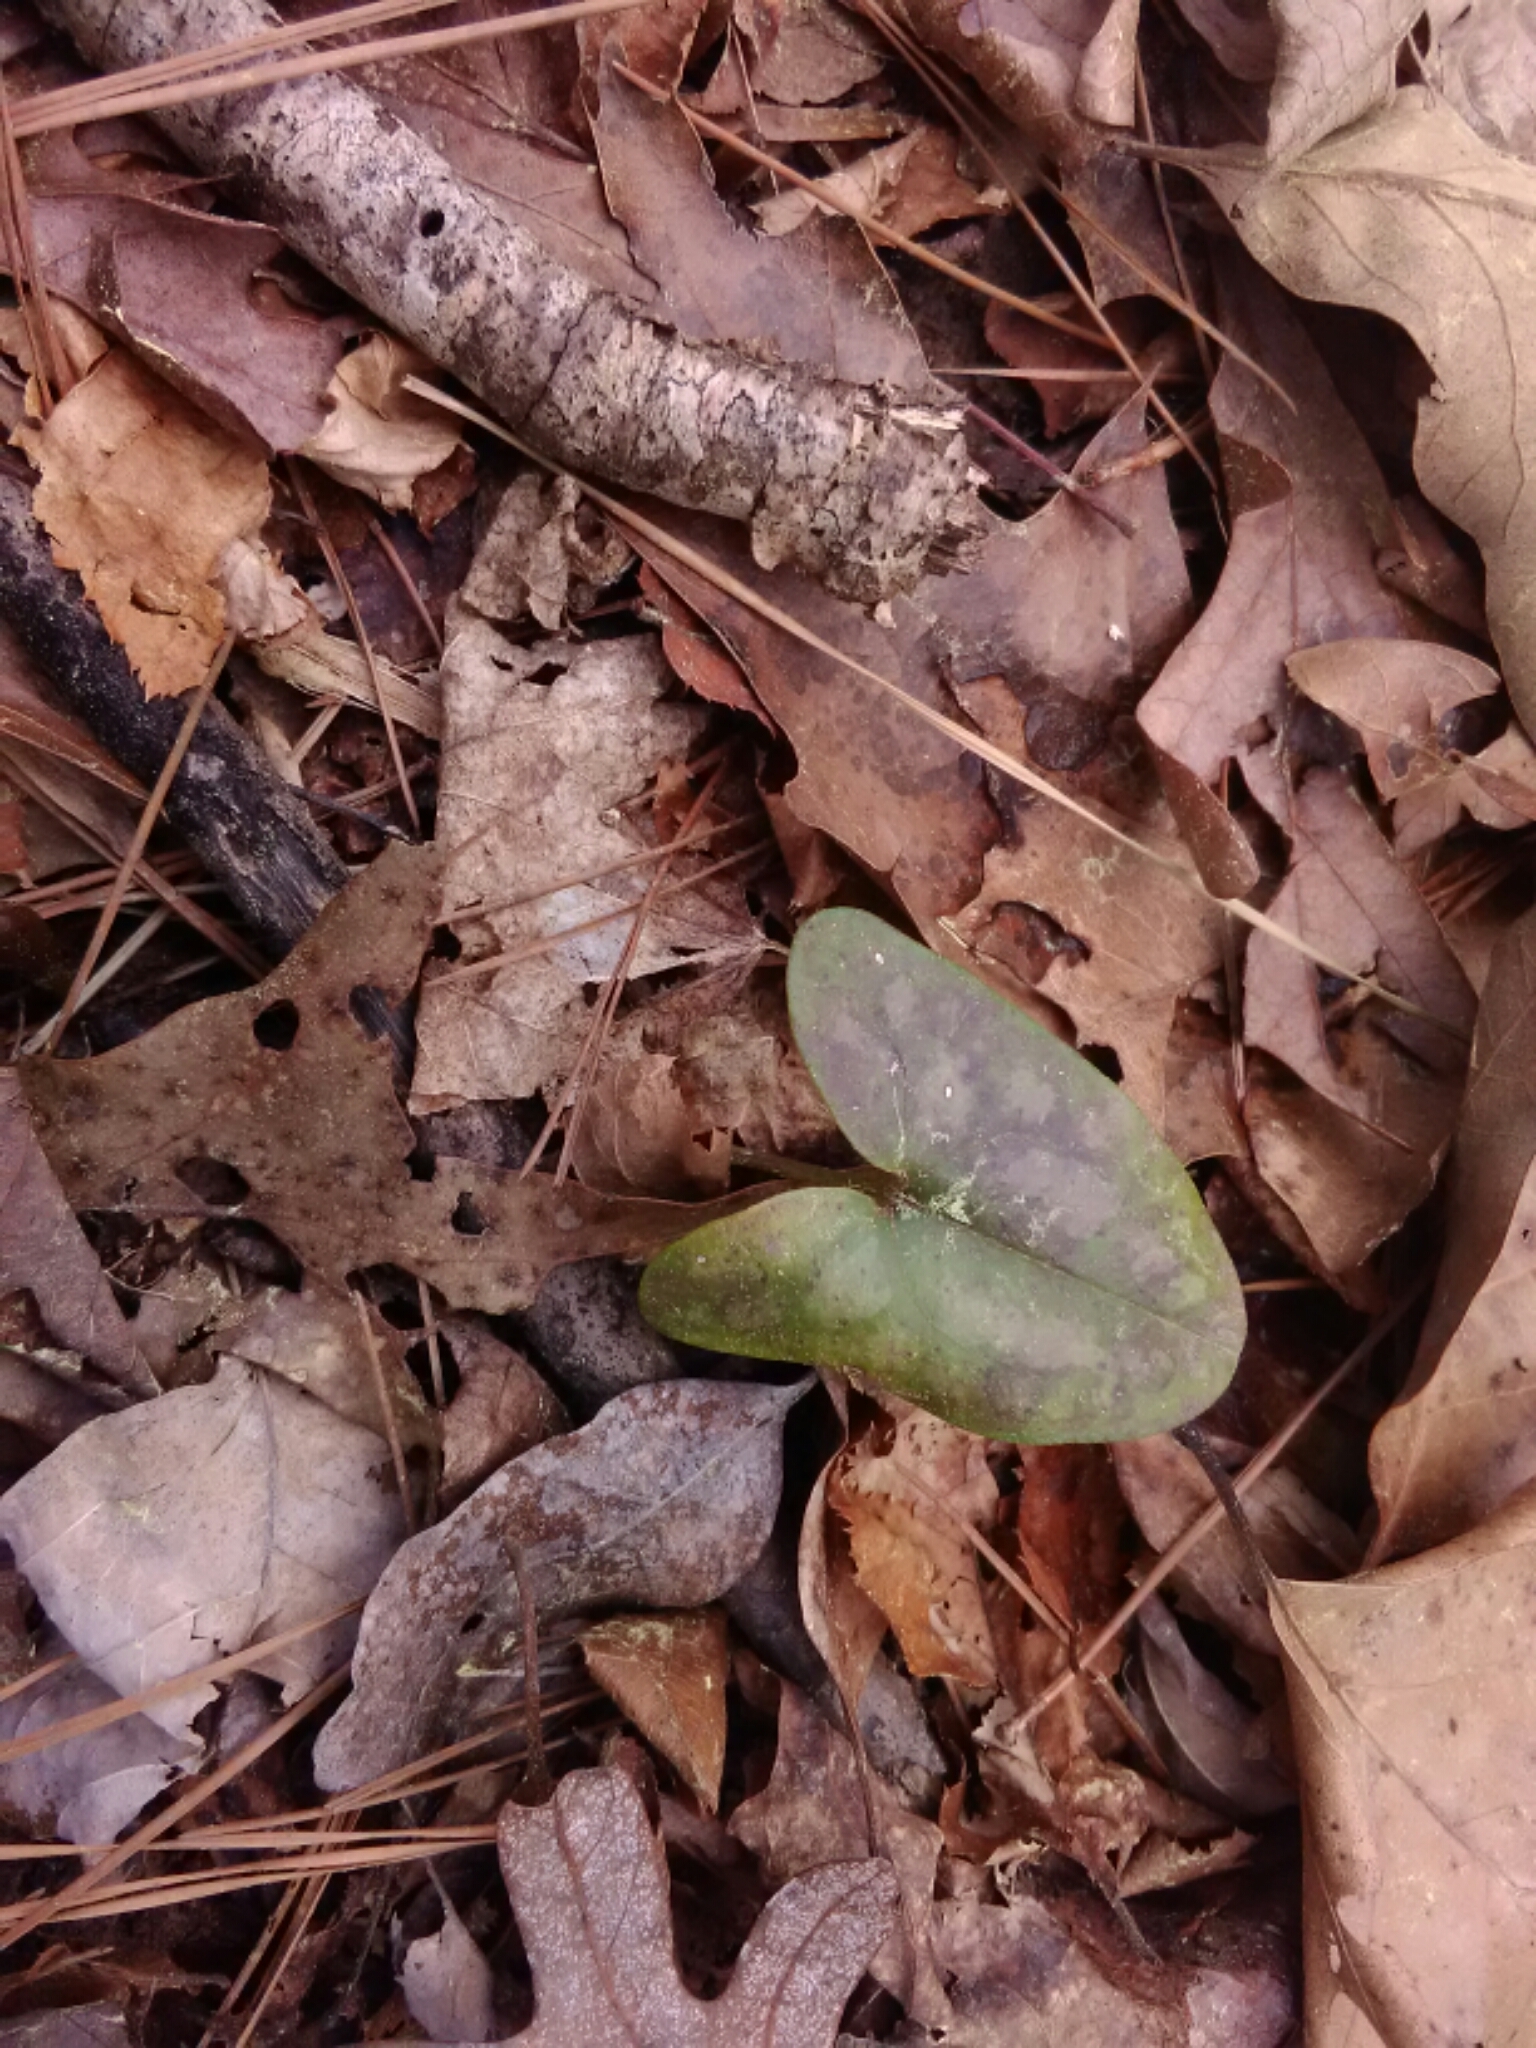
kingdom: Plantae
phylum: Tracheophyta
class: Magnoliopsida
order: Piperales
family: Aristolochiaceae
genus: Hexastylis
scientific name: Hexastylis arifolia
